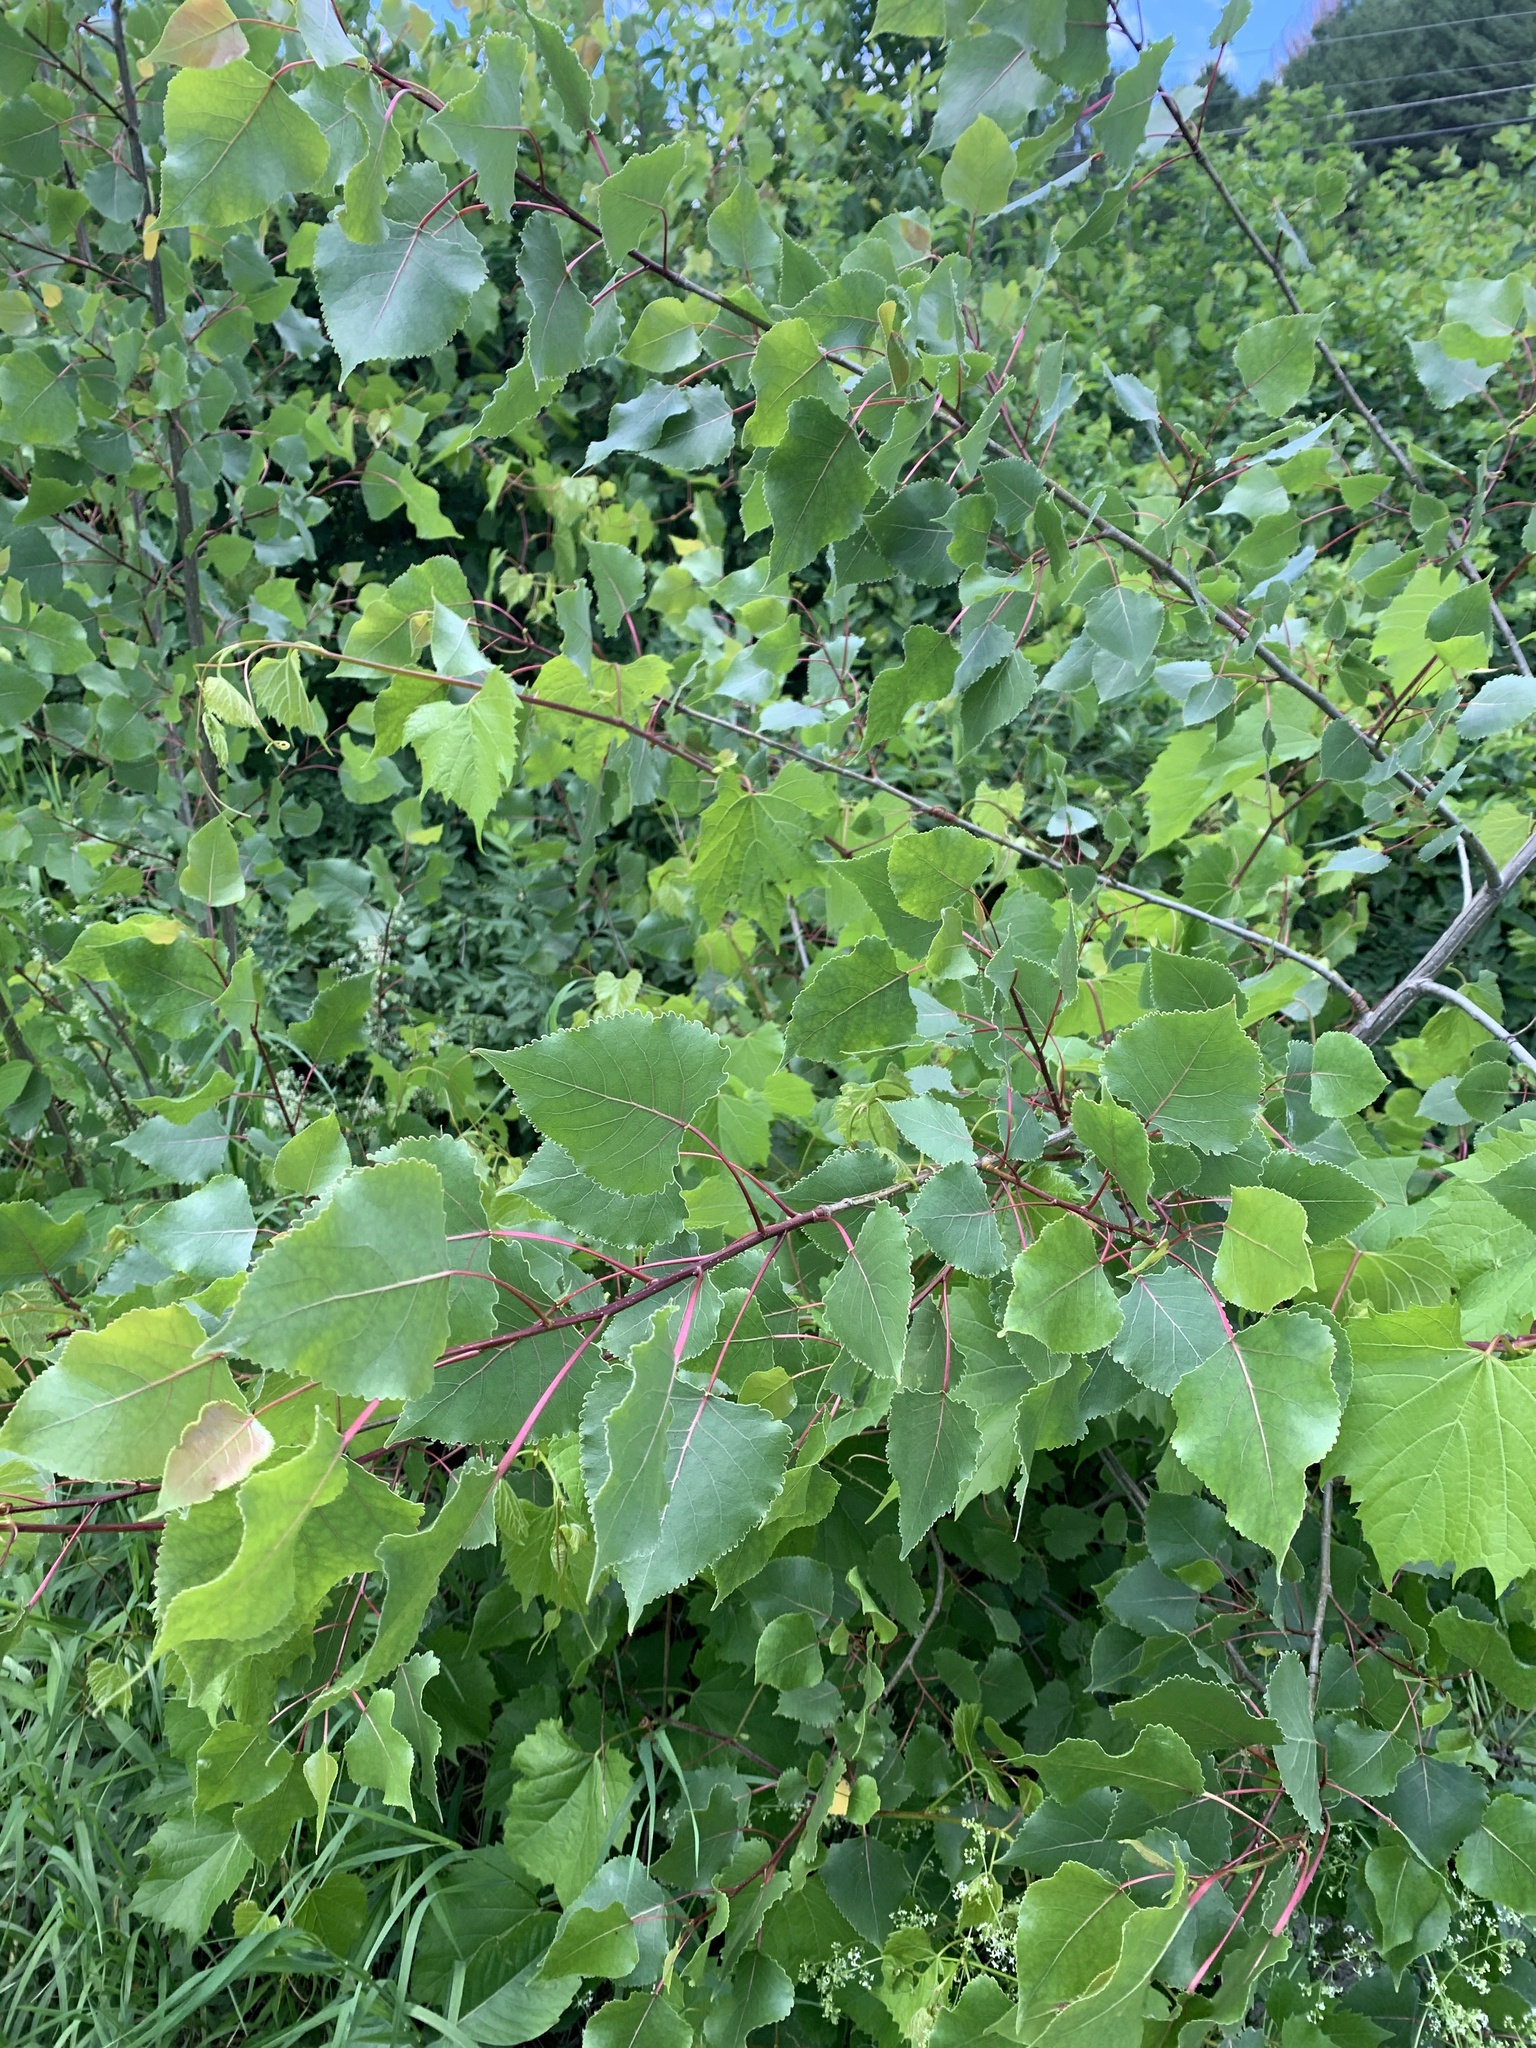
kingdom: Plantae
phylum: Tracheophyta
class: Magnoliopsida
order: Malpighiales
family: Salicaceae
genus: Populus
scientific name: Populus deltoides
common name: Eastern cottonwood
